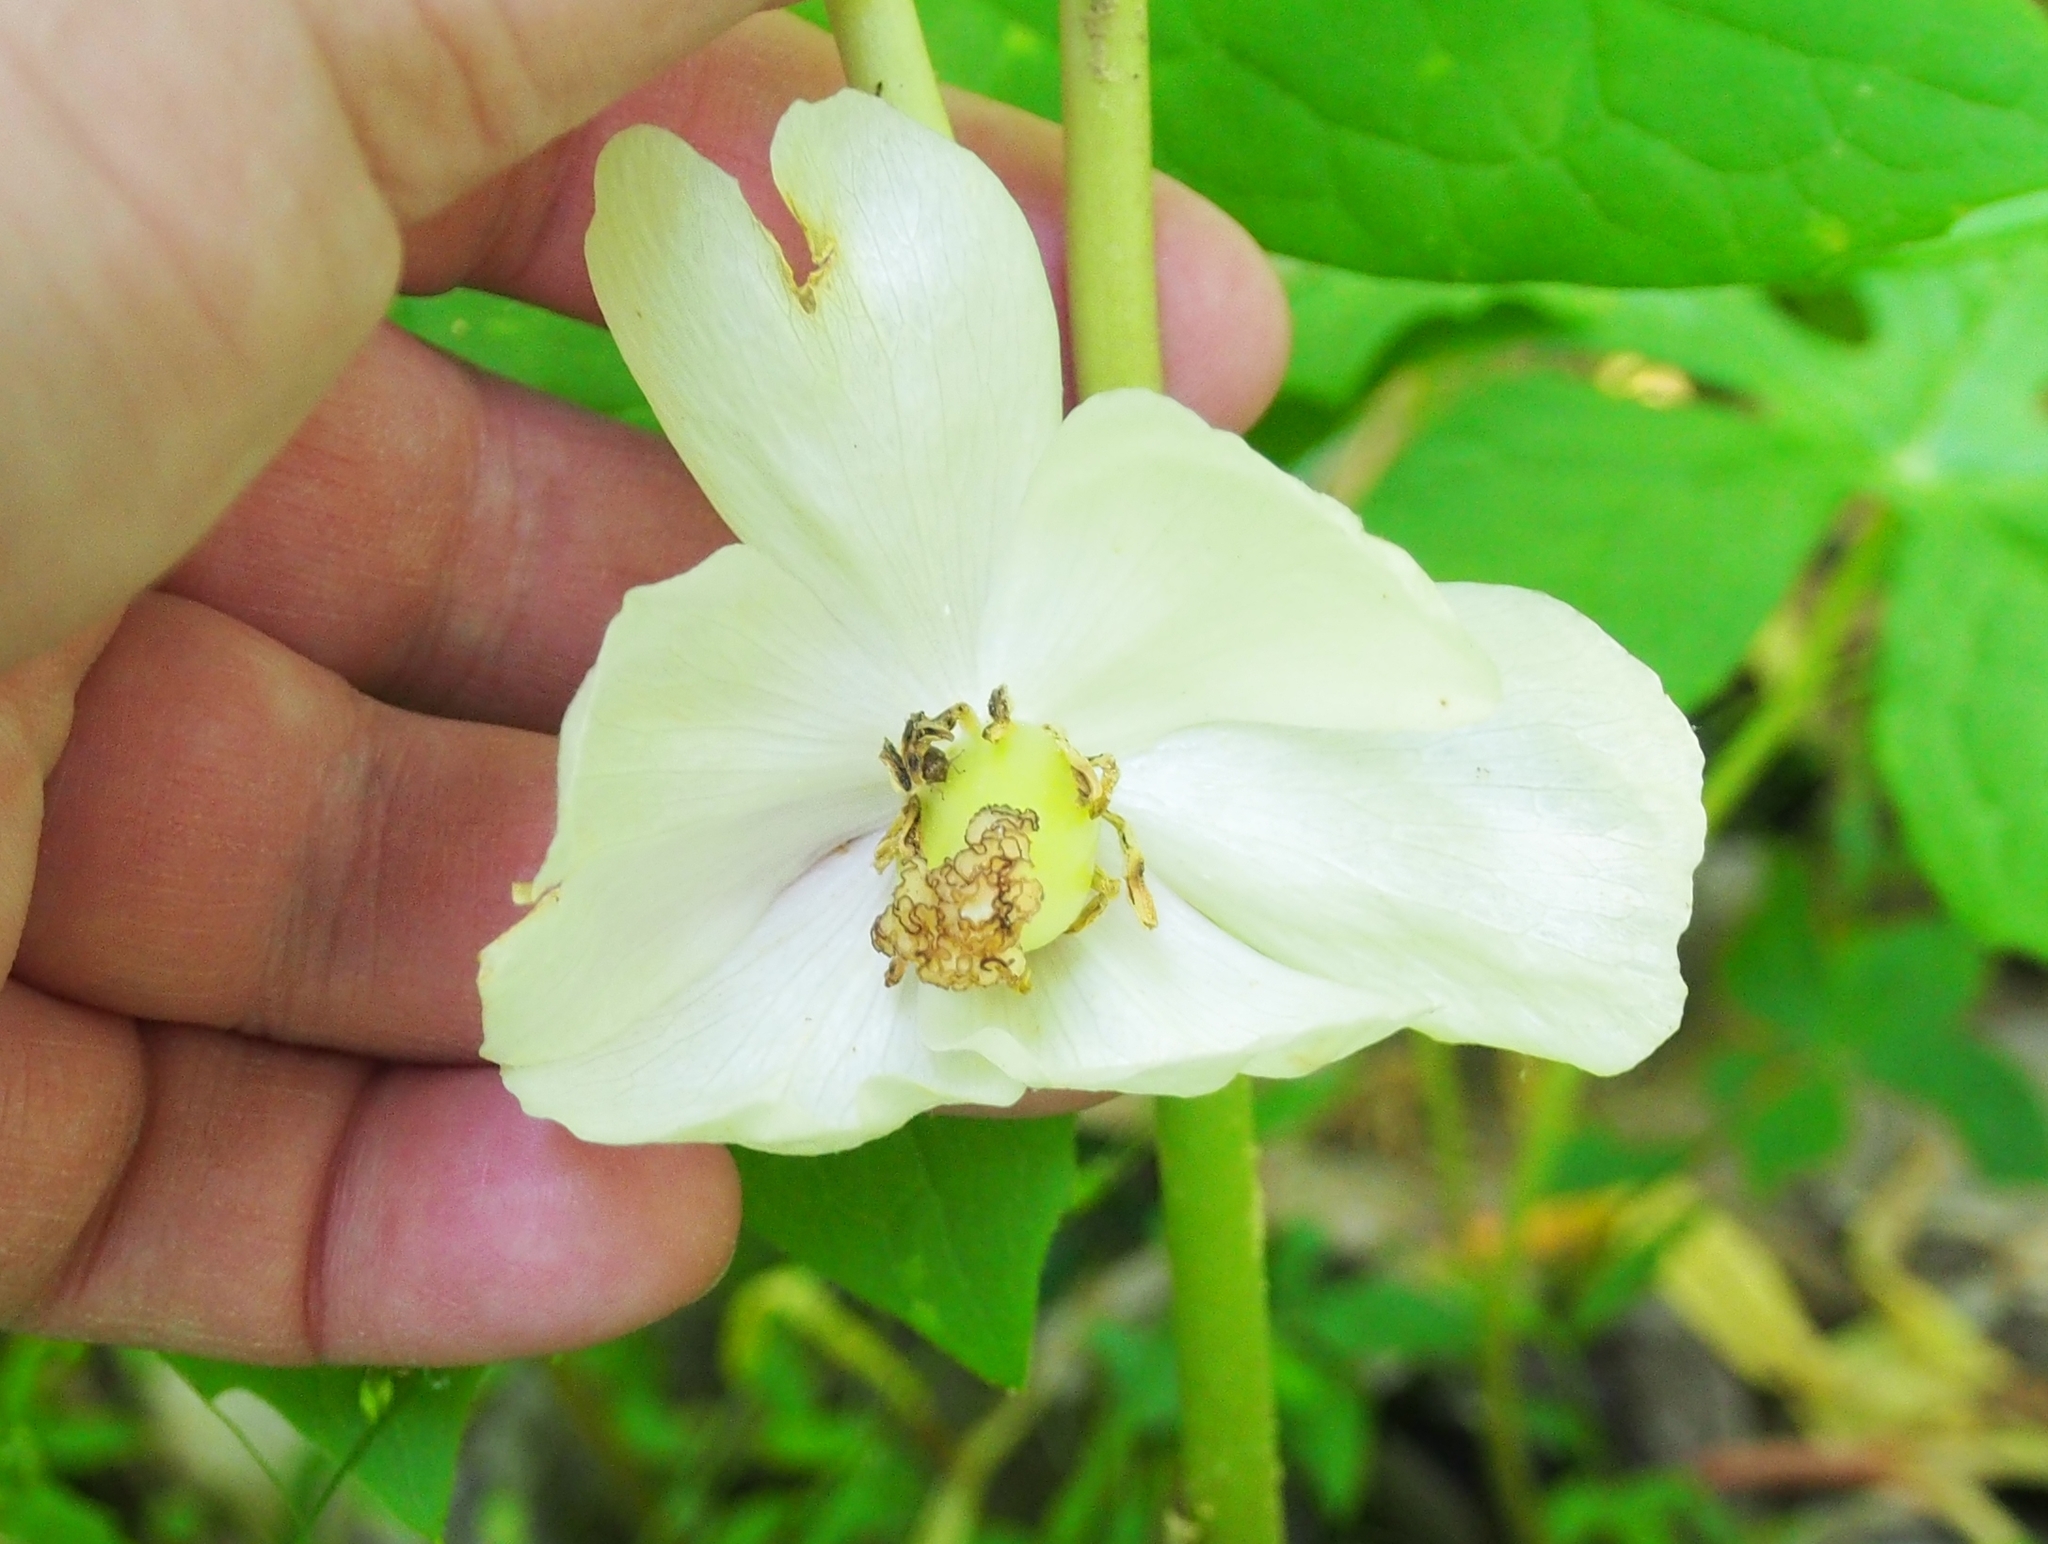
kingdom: Plantae
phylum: Tracheophyta
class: Magnoliopsida
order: Ranunculales
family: Berberidaceae
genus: Podophyllum
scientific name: Podophyllum peltatum
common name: Wild mandrake
